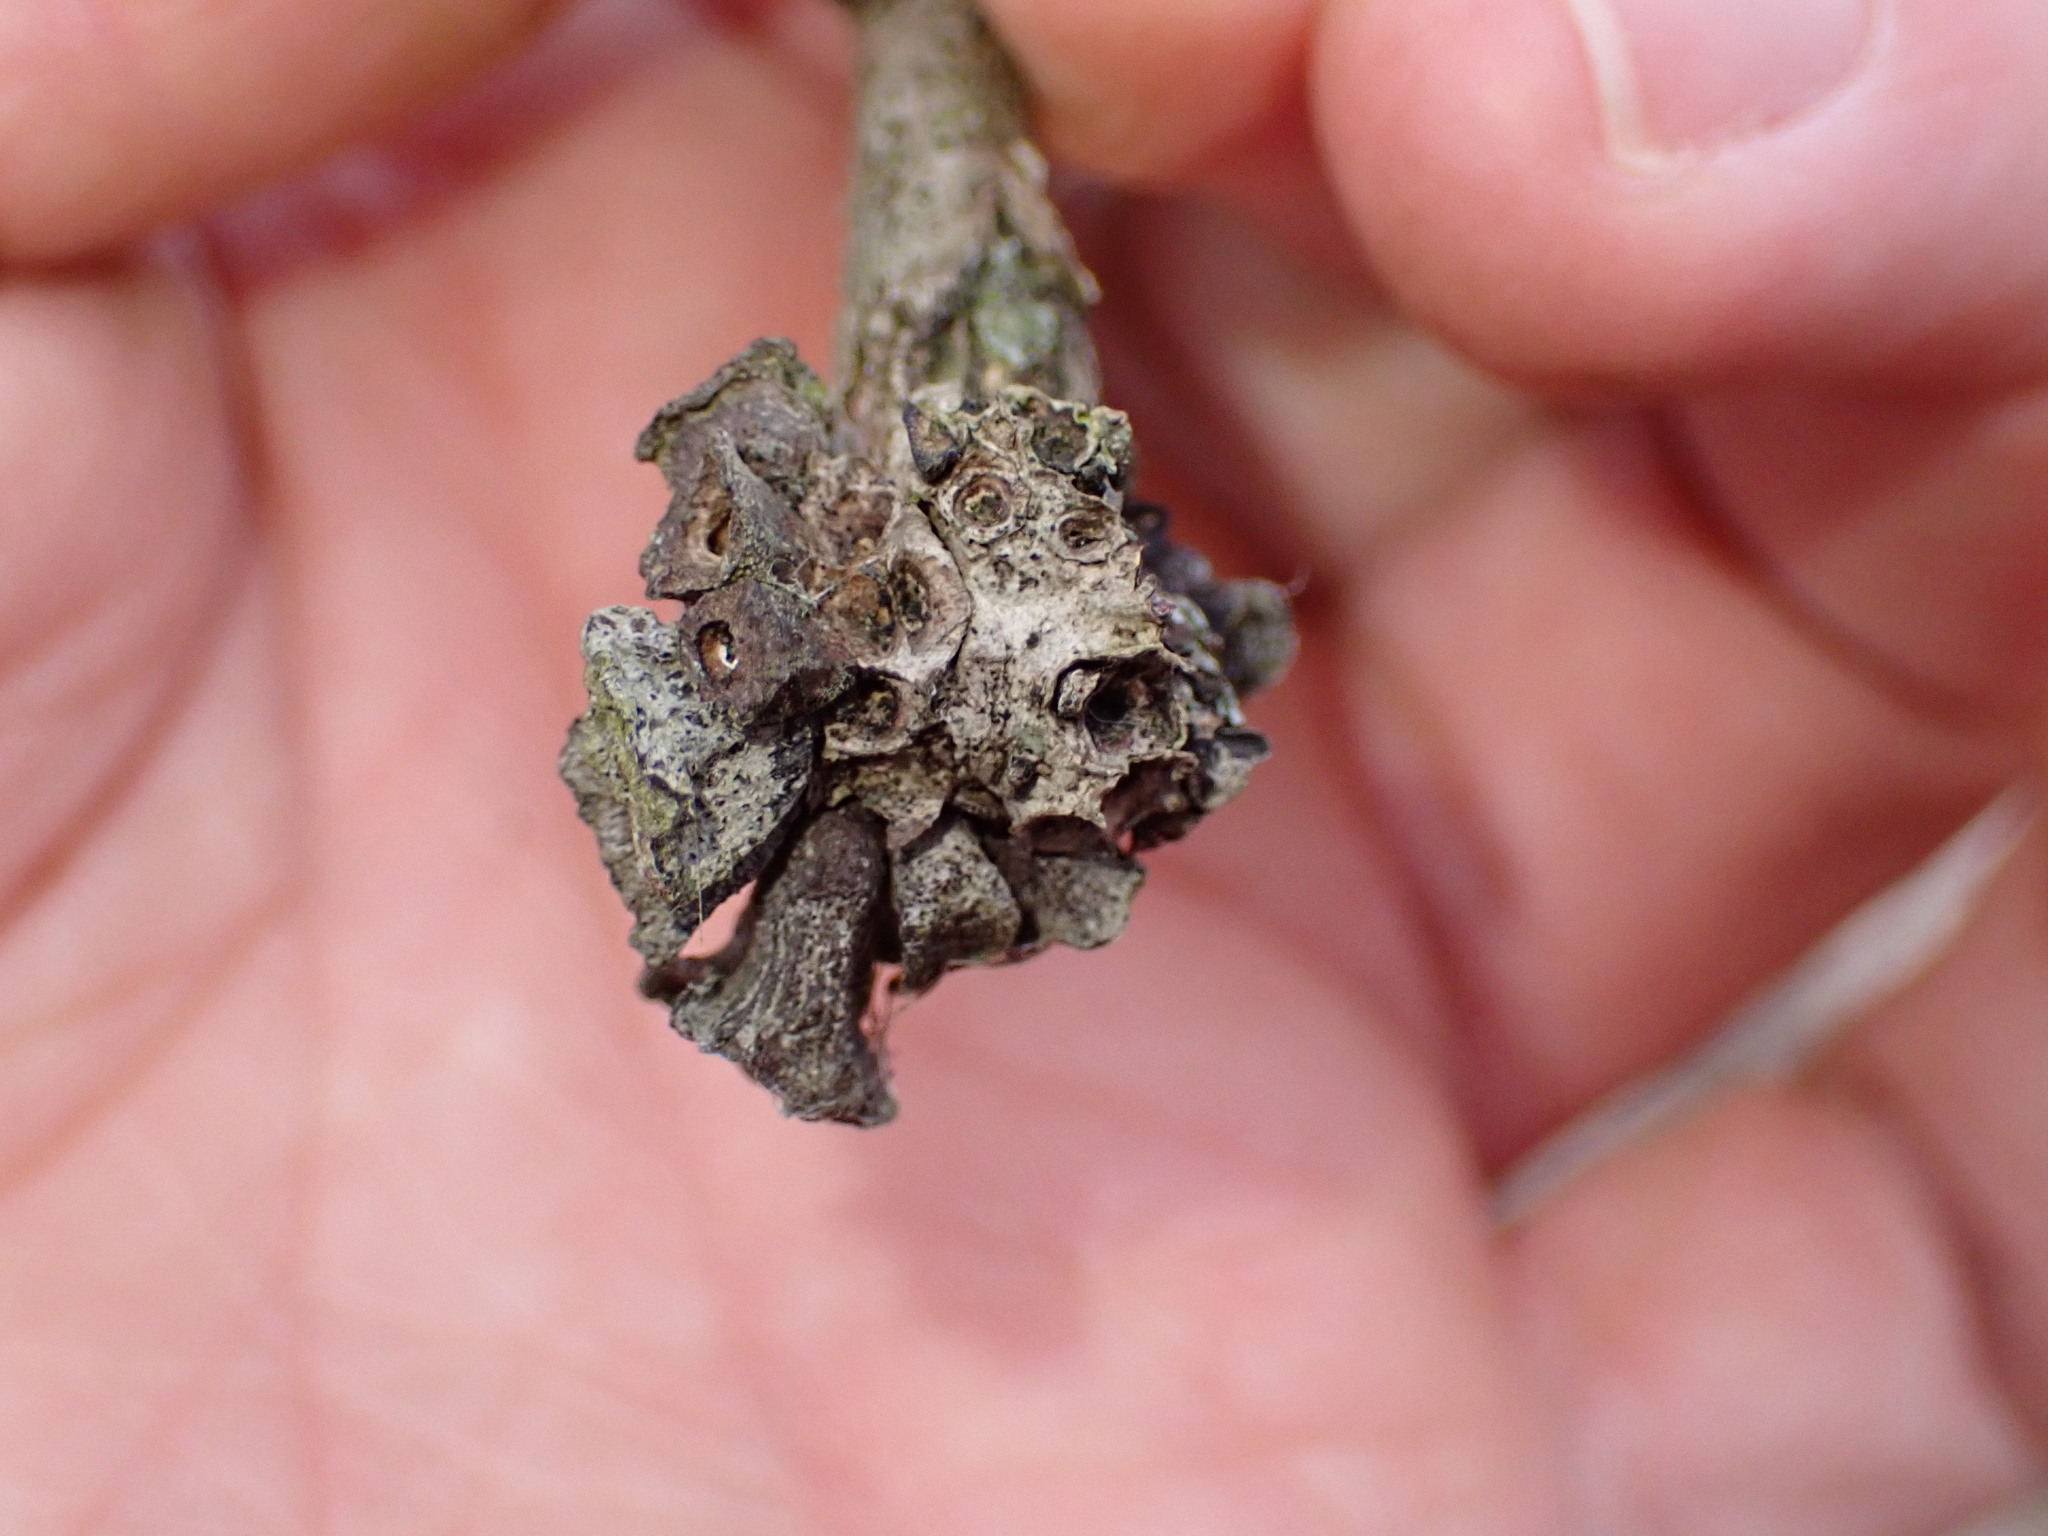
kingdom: Animalia
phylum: Arthropoda
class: Insecta
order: Hymenoptera
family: Cynipidae
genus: Andricus
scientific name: Andricus
